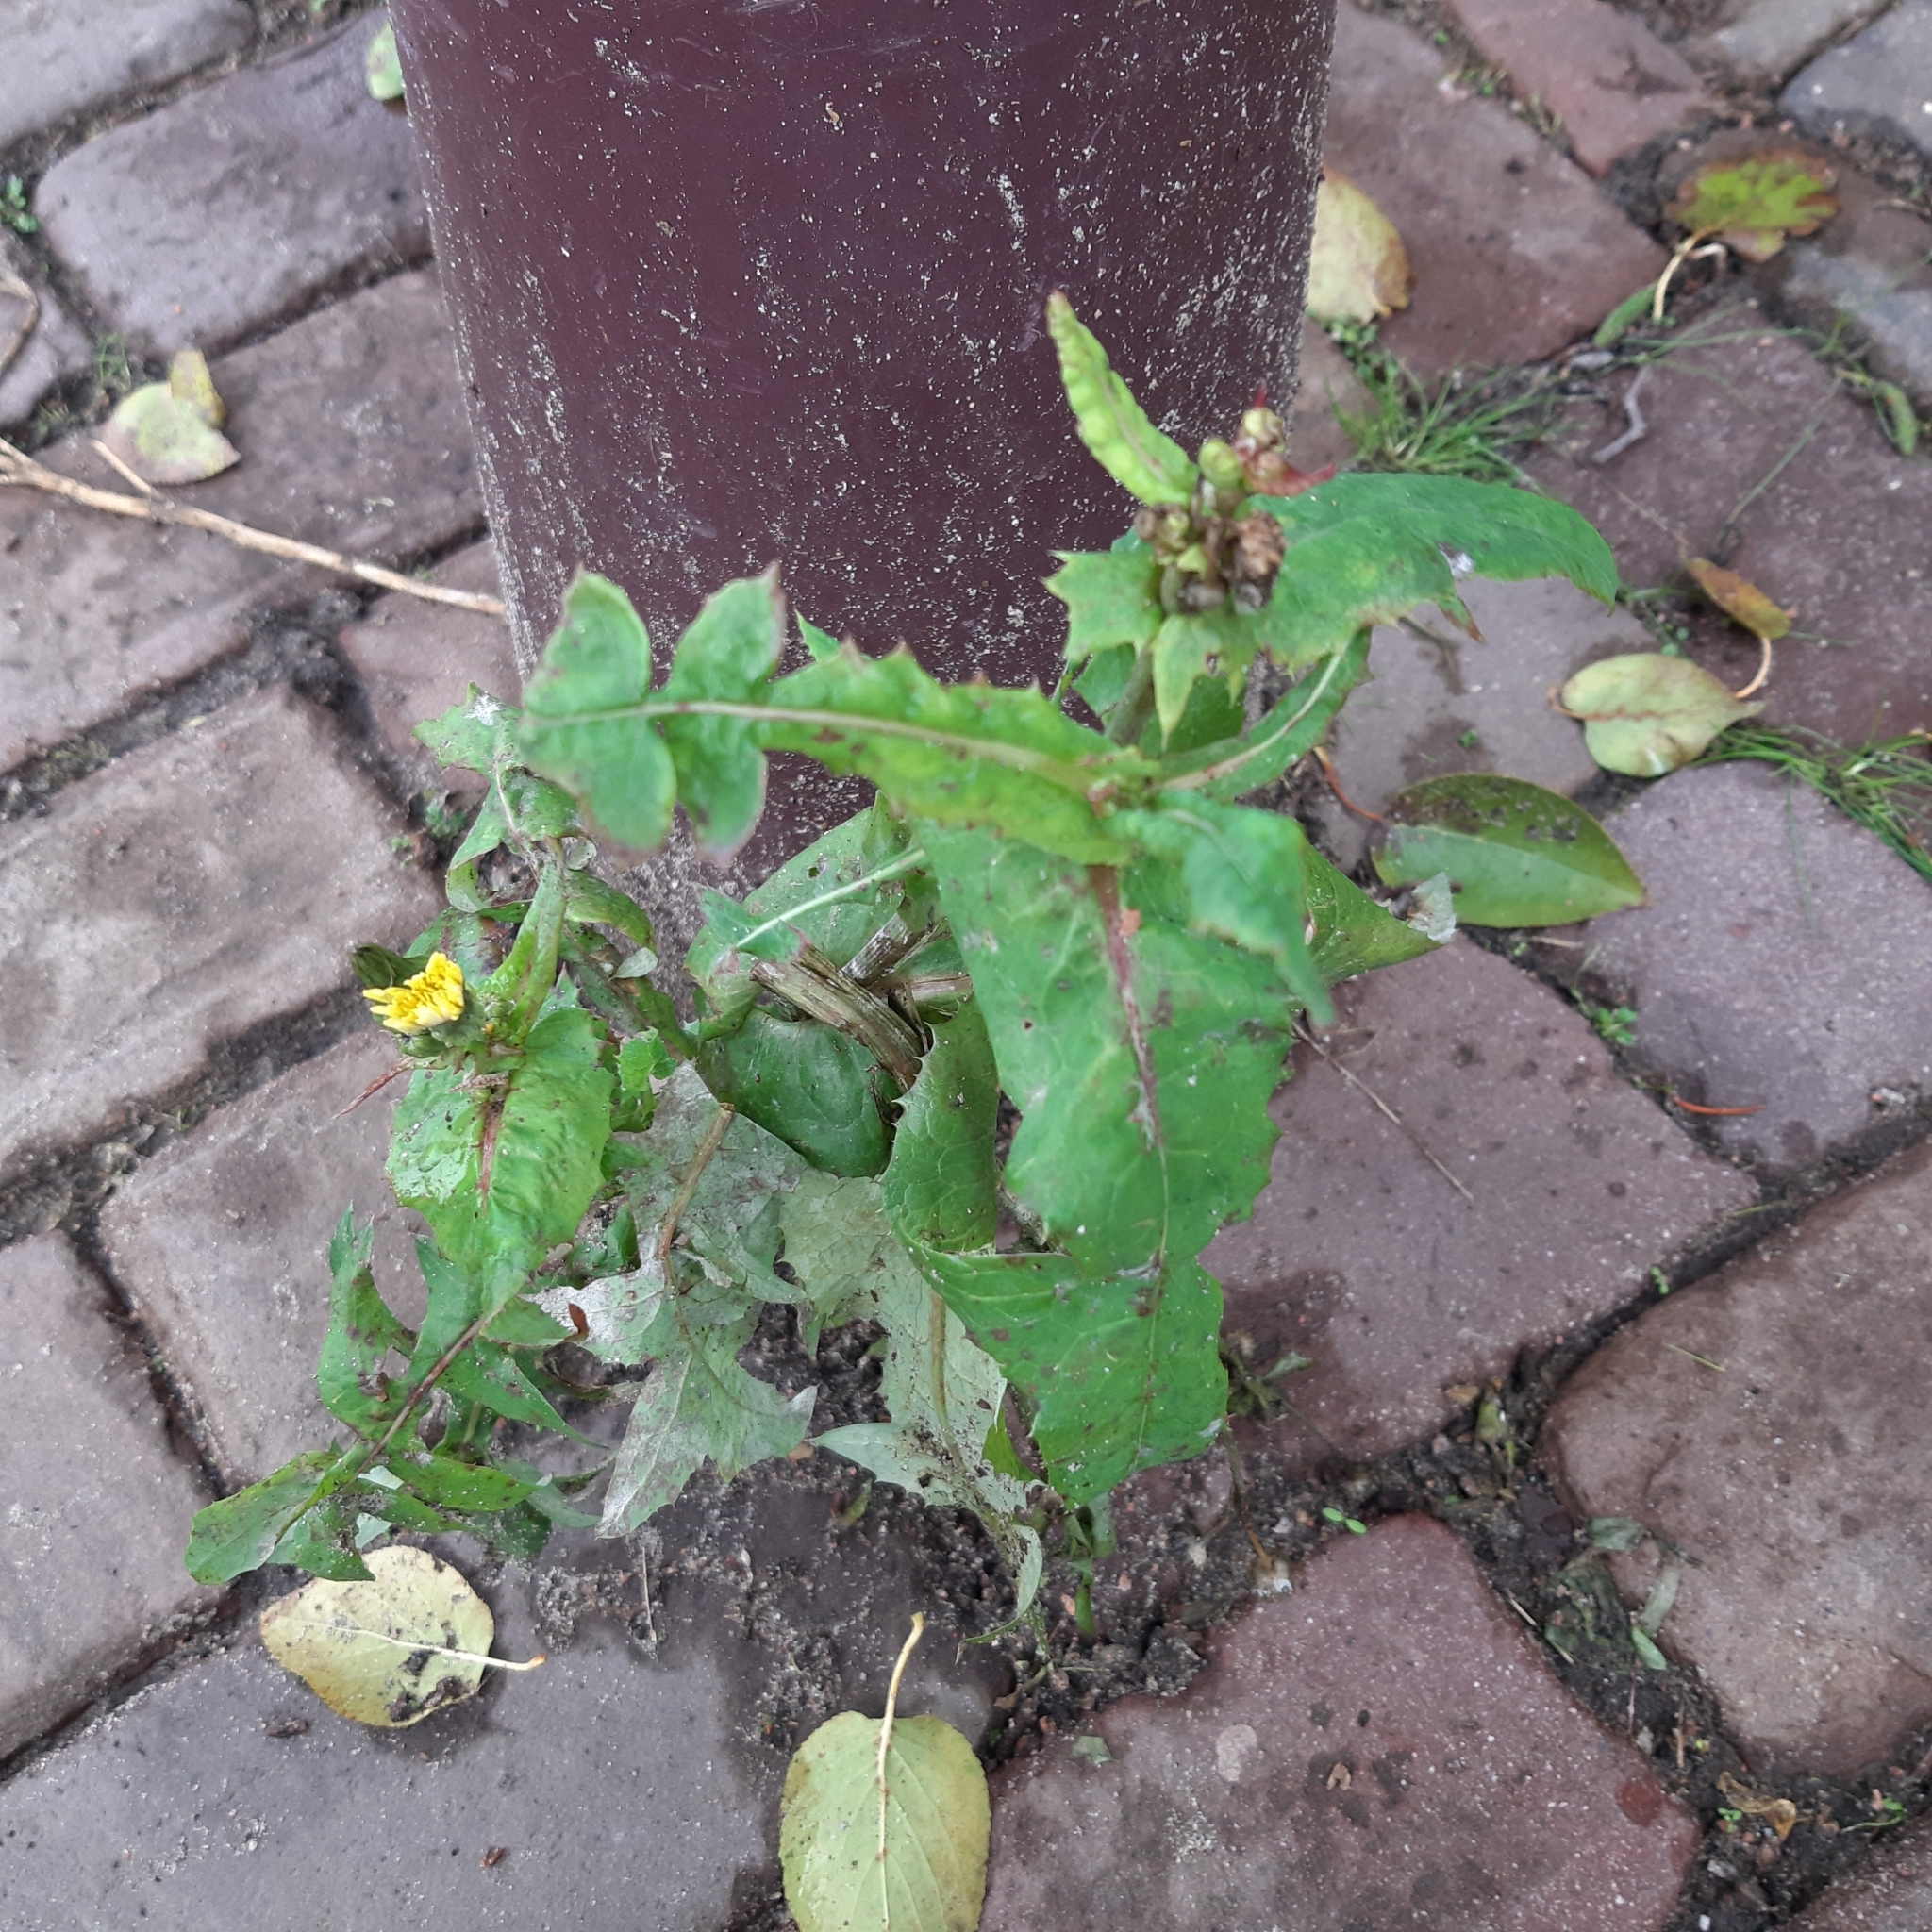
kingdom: Plantae
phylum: Tracheophyta
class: Magnoliopsida
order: Asterales
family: Asteraceae
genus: Sonchus
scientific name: Sonchus oleraceus
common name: Common sowthistle
